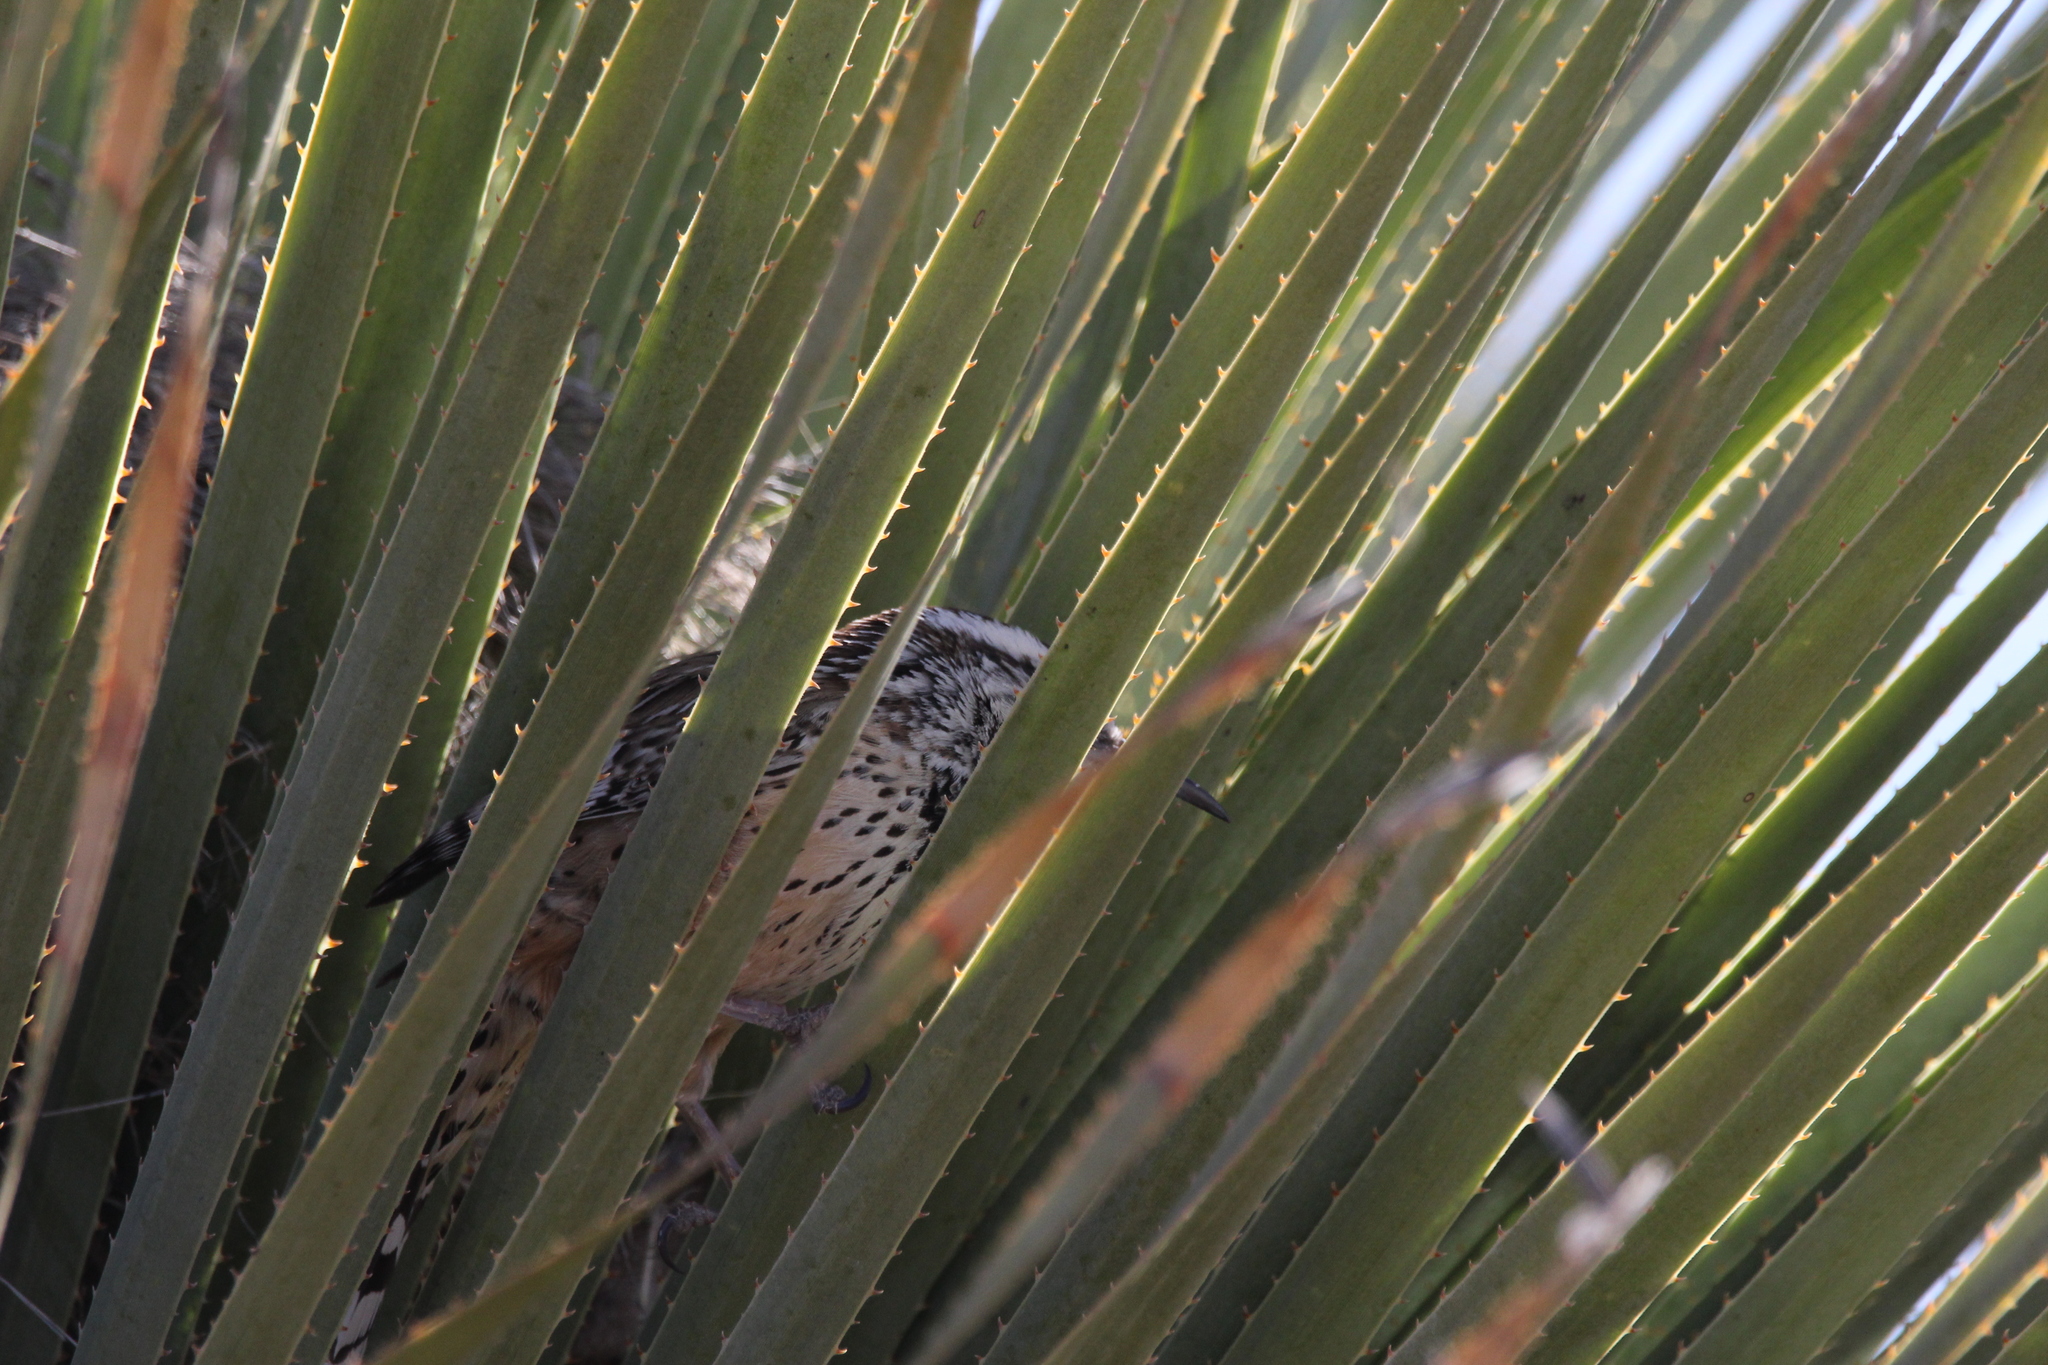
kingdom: Animalia
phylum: Chordata
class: Aves
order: Passeriformes
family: Troglodytidae
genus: Campylorhynchus
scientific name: Campylorhynchus brunneicapillus
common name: Cactus wren
